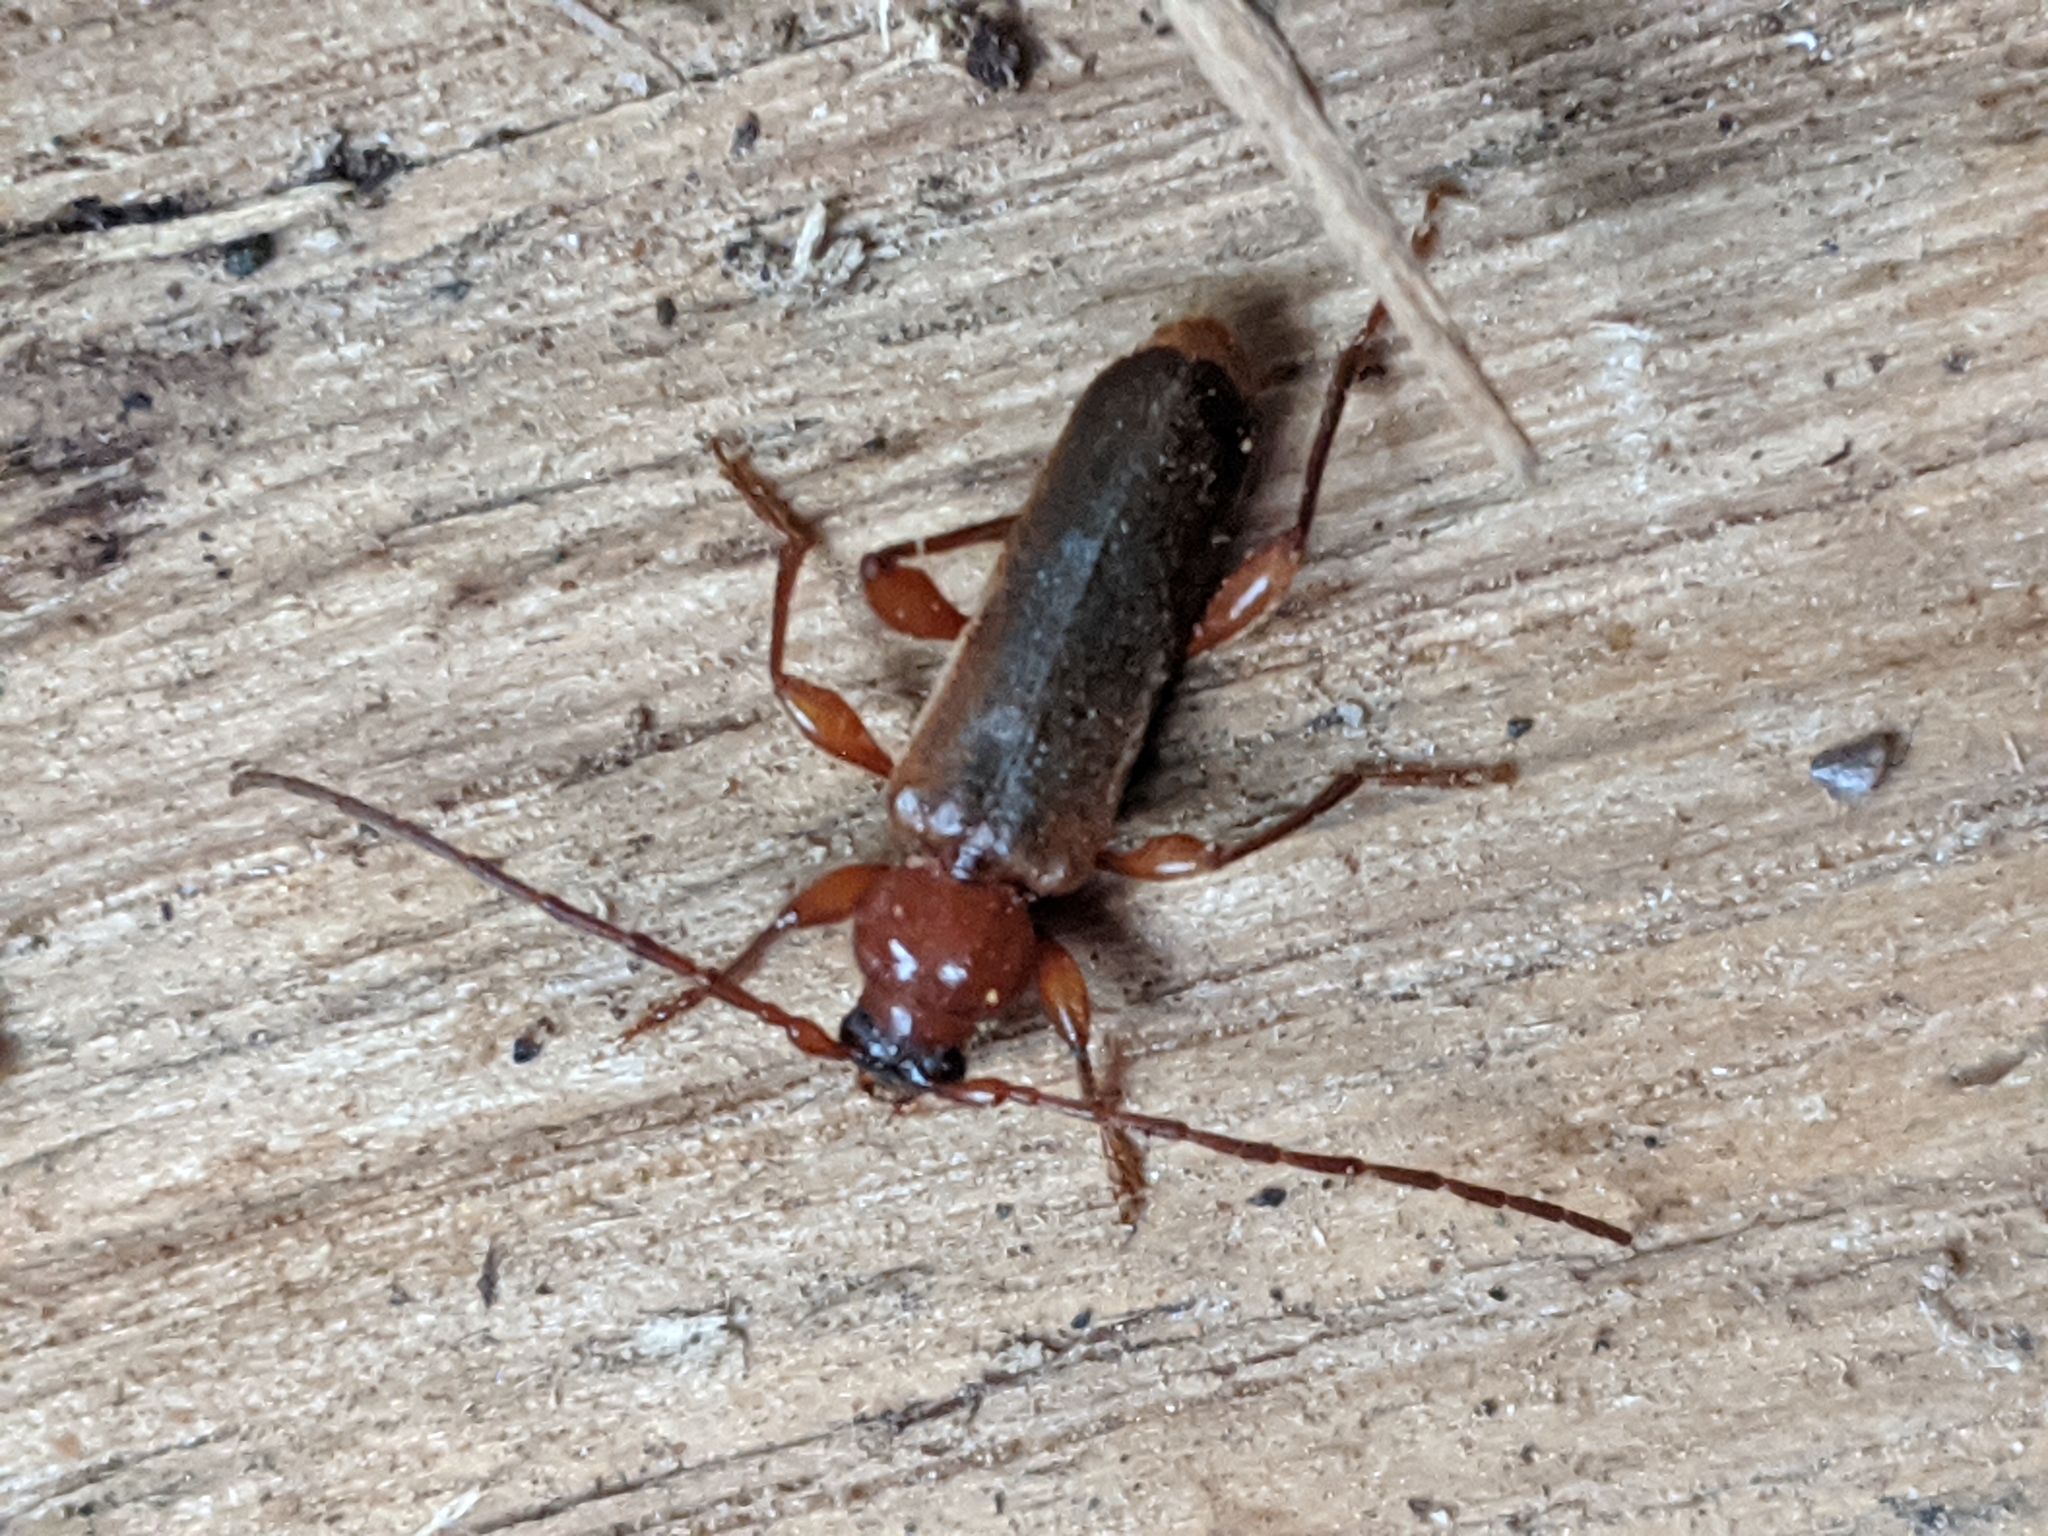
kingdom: Animalia
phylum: Arthropoda
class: Insecta
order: Coleoptera
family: Cerambycidae
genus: Phymatodes
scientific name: Phymatodes testaceus
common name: Long-horned beetle
